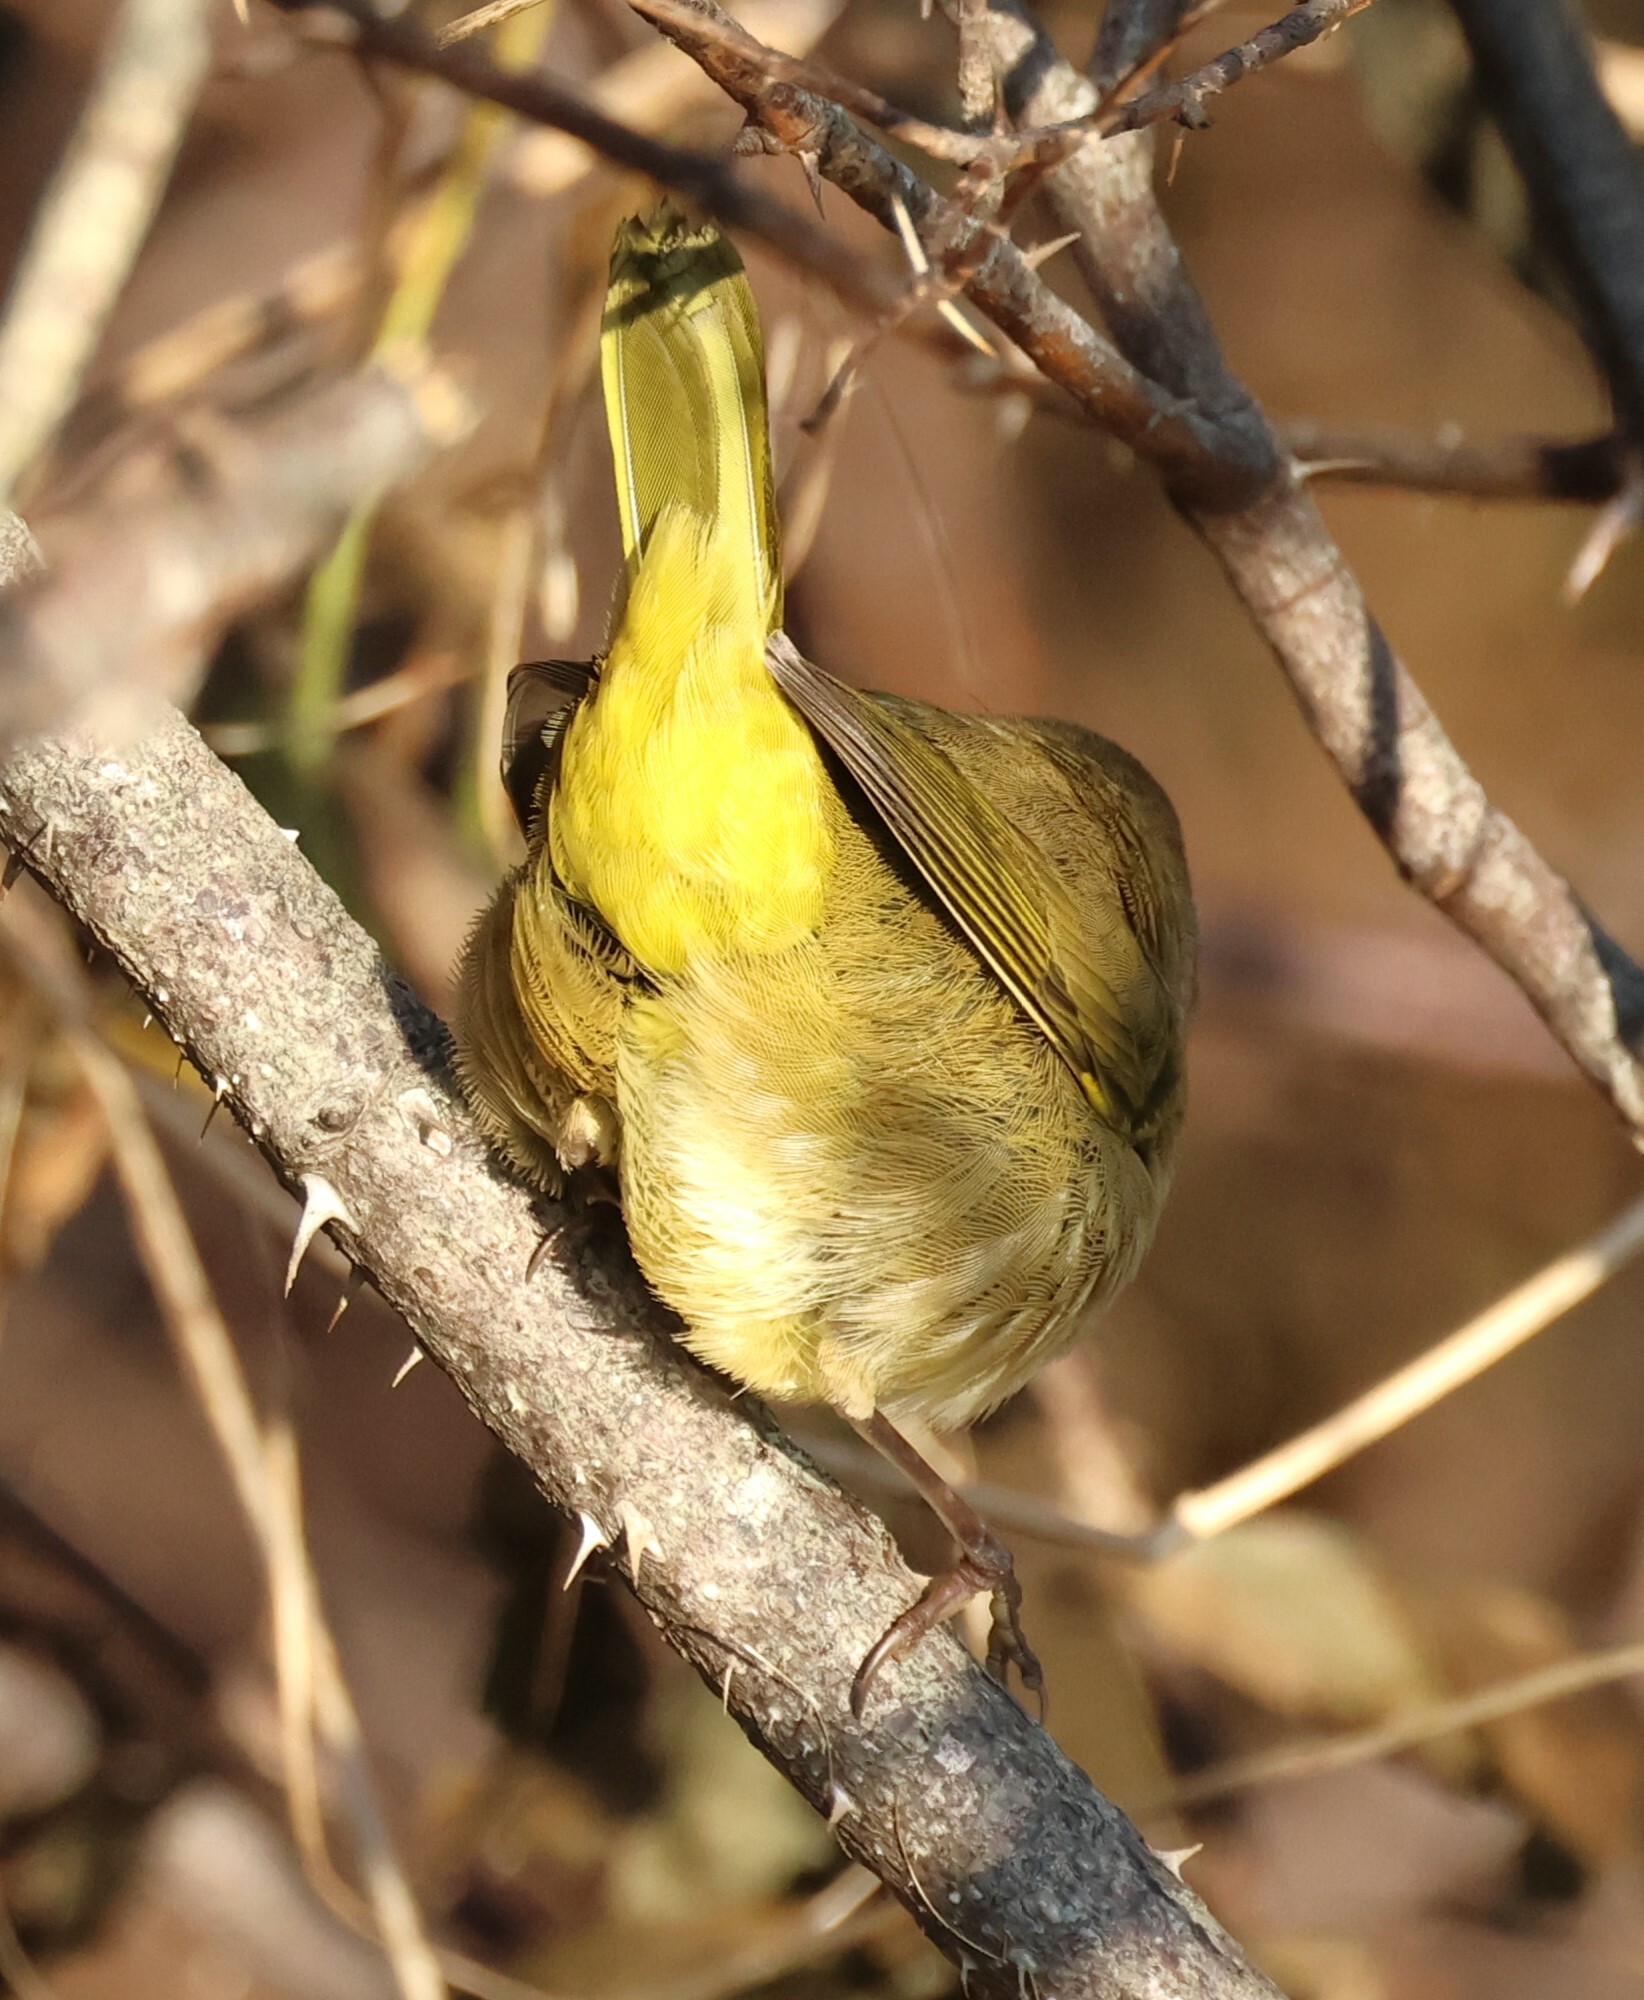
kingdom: Animalia
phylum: Chordata
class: Aves
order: Passeriformes
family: Parulidae
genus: Geothlypis
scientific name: Geothlypis trichas
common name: Common yellowthroat
